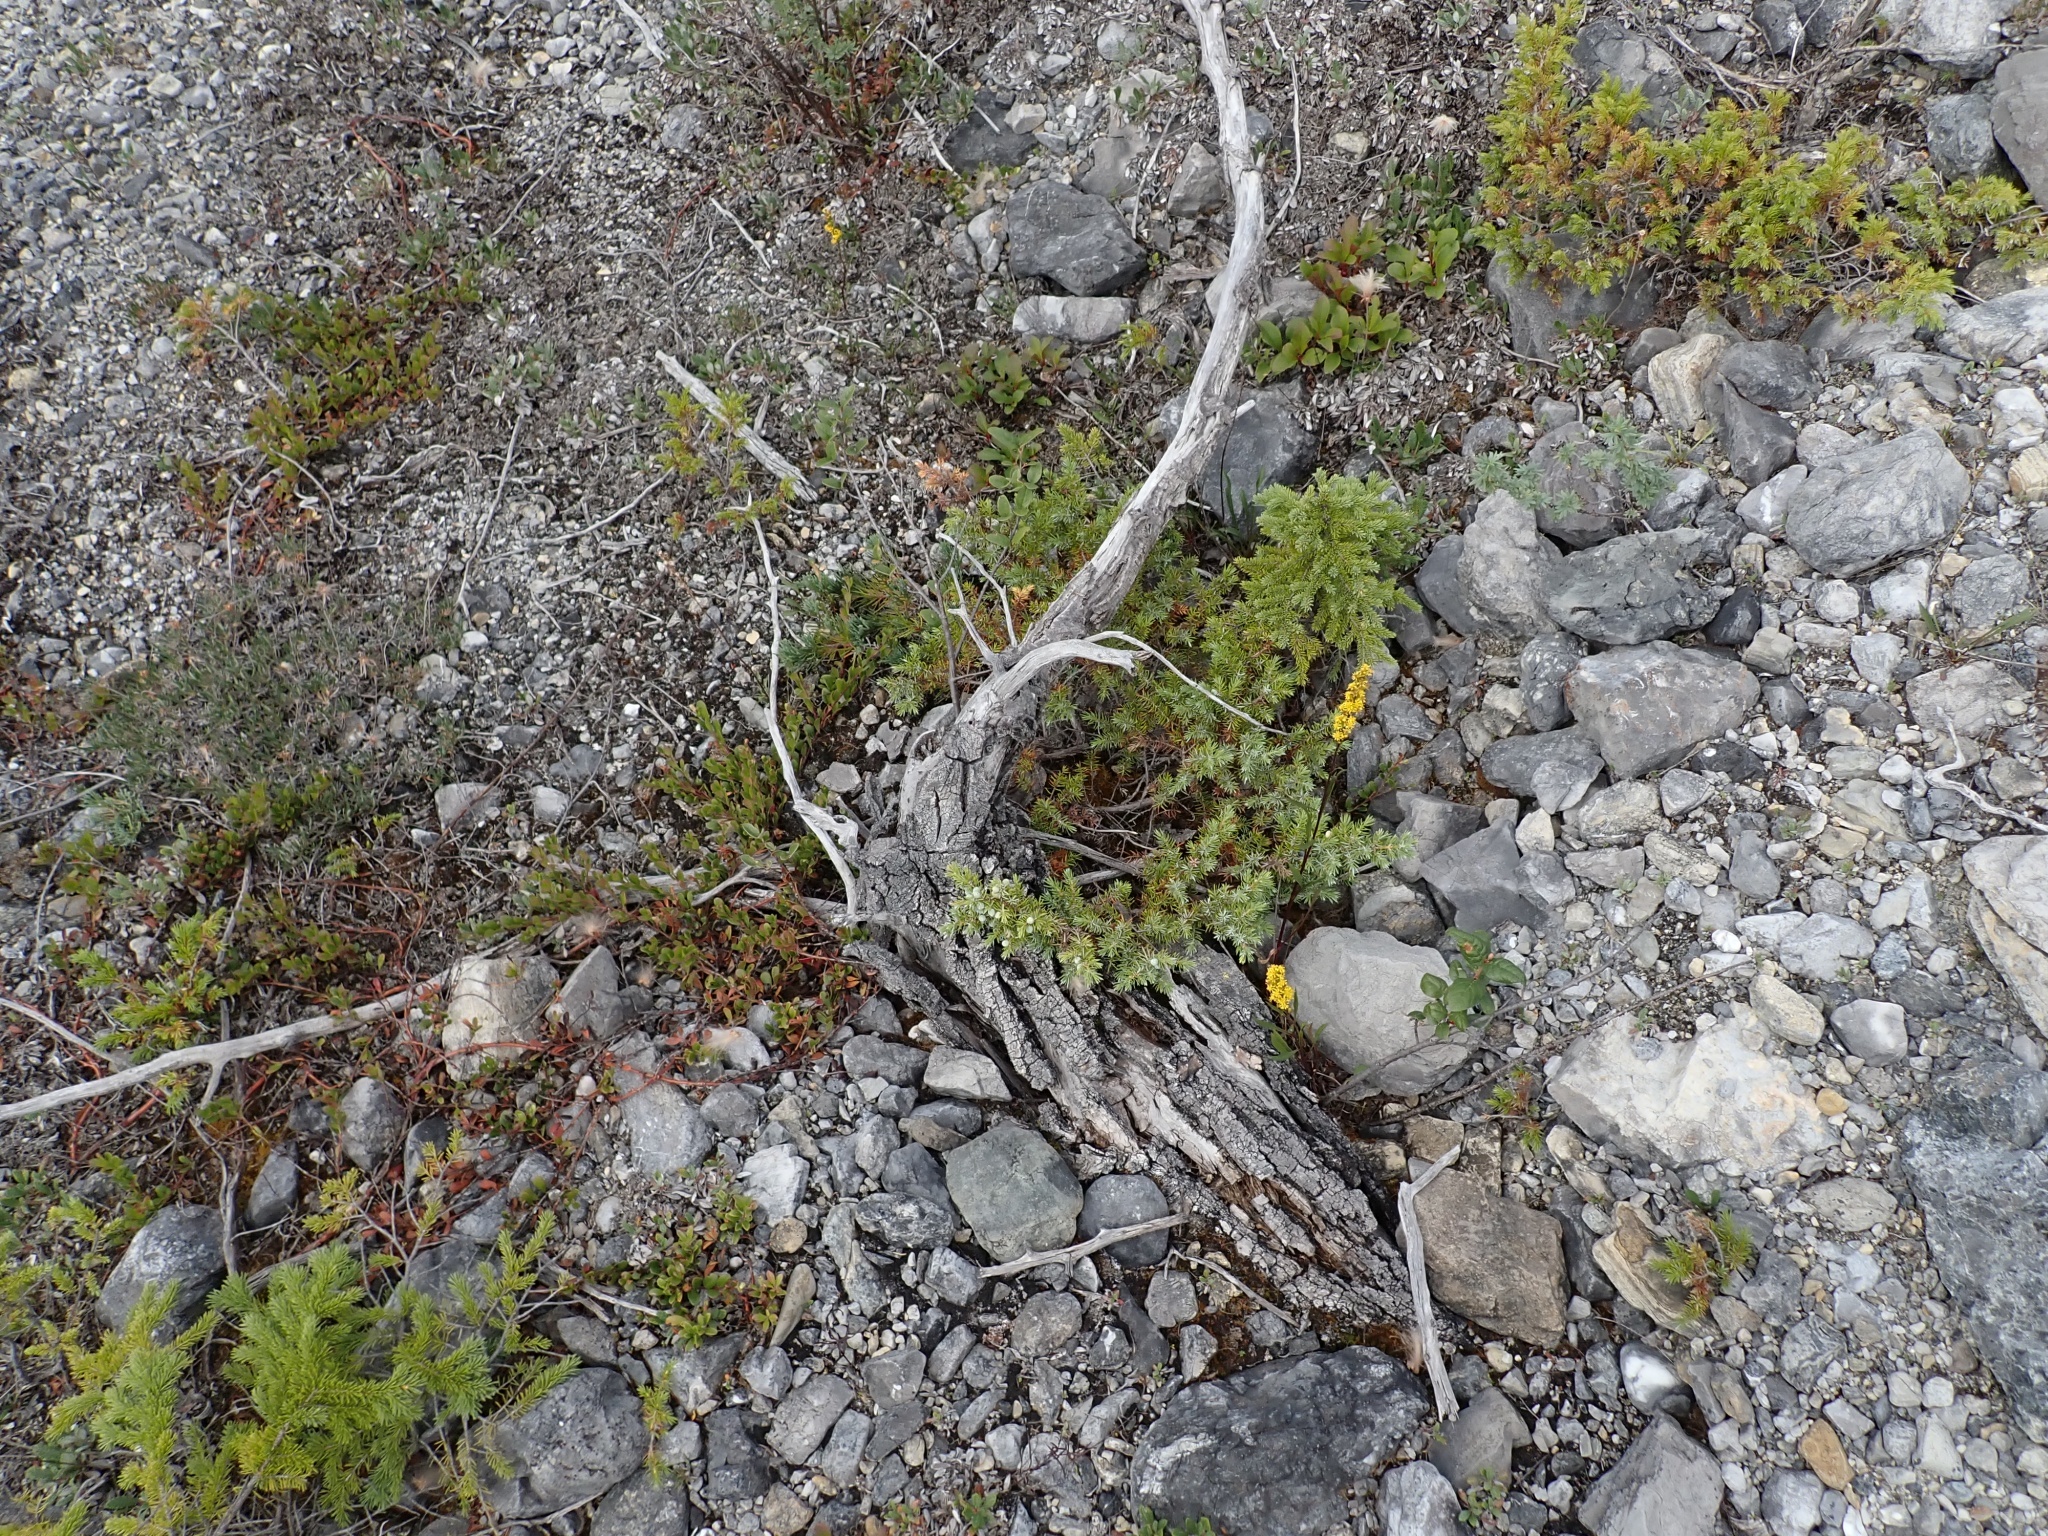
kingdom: Plantae
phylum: Tracheophyta
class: Pinopsida
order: Pinales
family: Cupressaceae
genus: Juniperus
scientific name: Juniperus communis
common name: Common juniper
